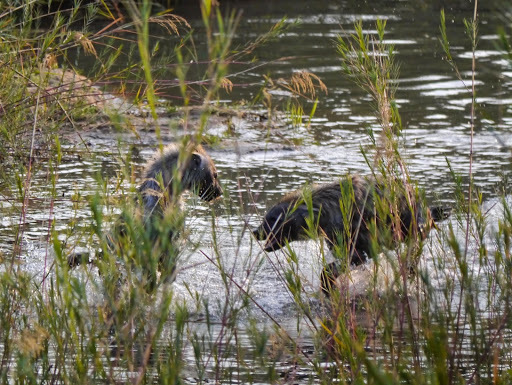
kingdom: Animalia
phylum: Chordata
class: Mammalia
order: Carnivora
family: Hyaenidae
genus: Crocuta
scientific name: Crocuta crocuta
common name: Spotted hyaena
